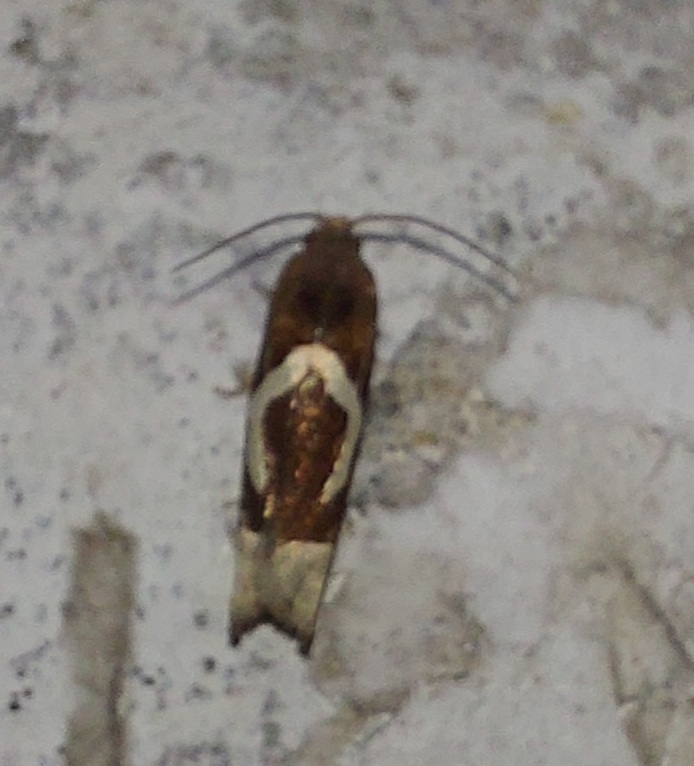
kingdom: Animalia
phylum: Arthropoda
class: Insecta
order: Lepidoptera
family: Tortricidae
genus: Epiblema
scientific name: Epiblema foenella
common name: White-foot bell
